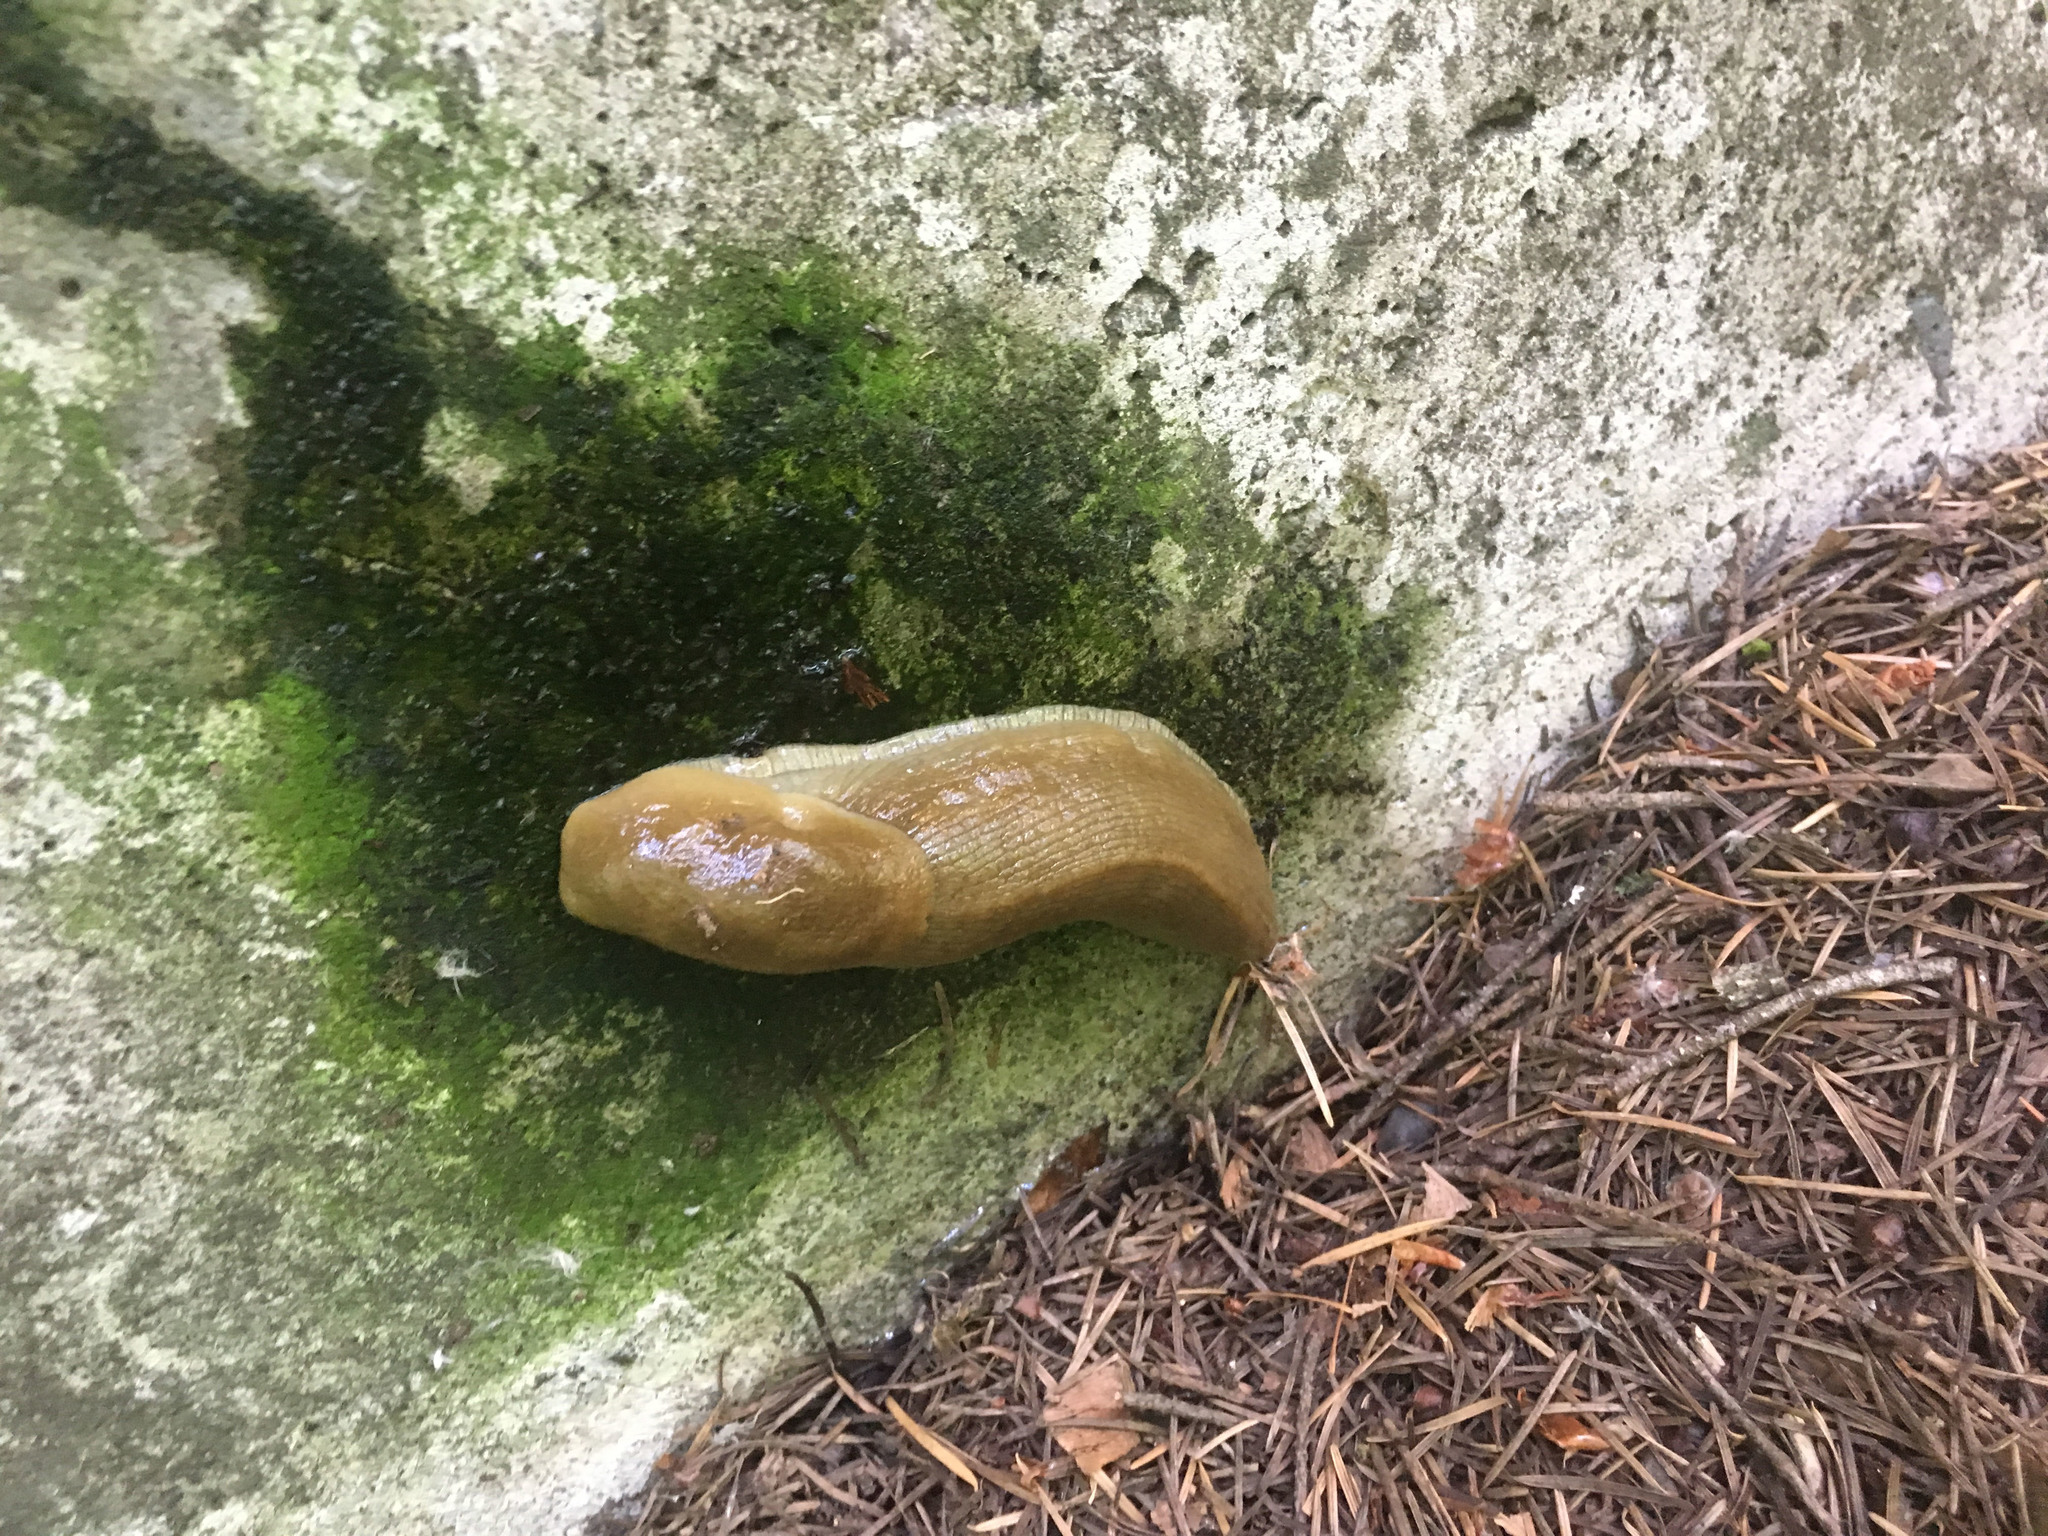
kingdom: Animalia
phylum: Mollusca
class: Gastropoda
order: Stylommatophora
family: Ariolimacidae
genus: Ariolimax
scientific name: Ariolimax columbianus
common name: Pacific banana slug
